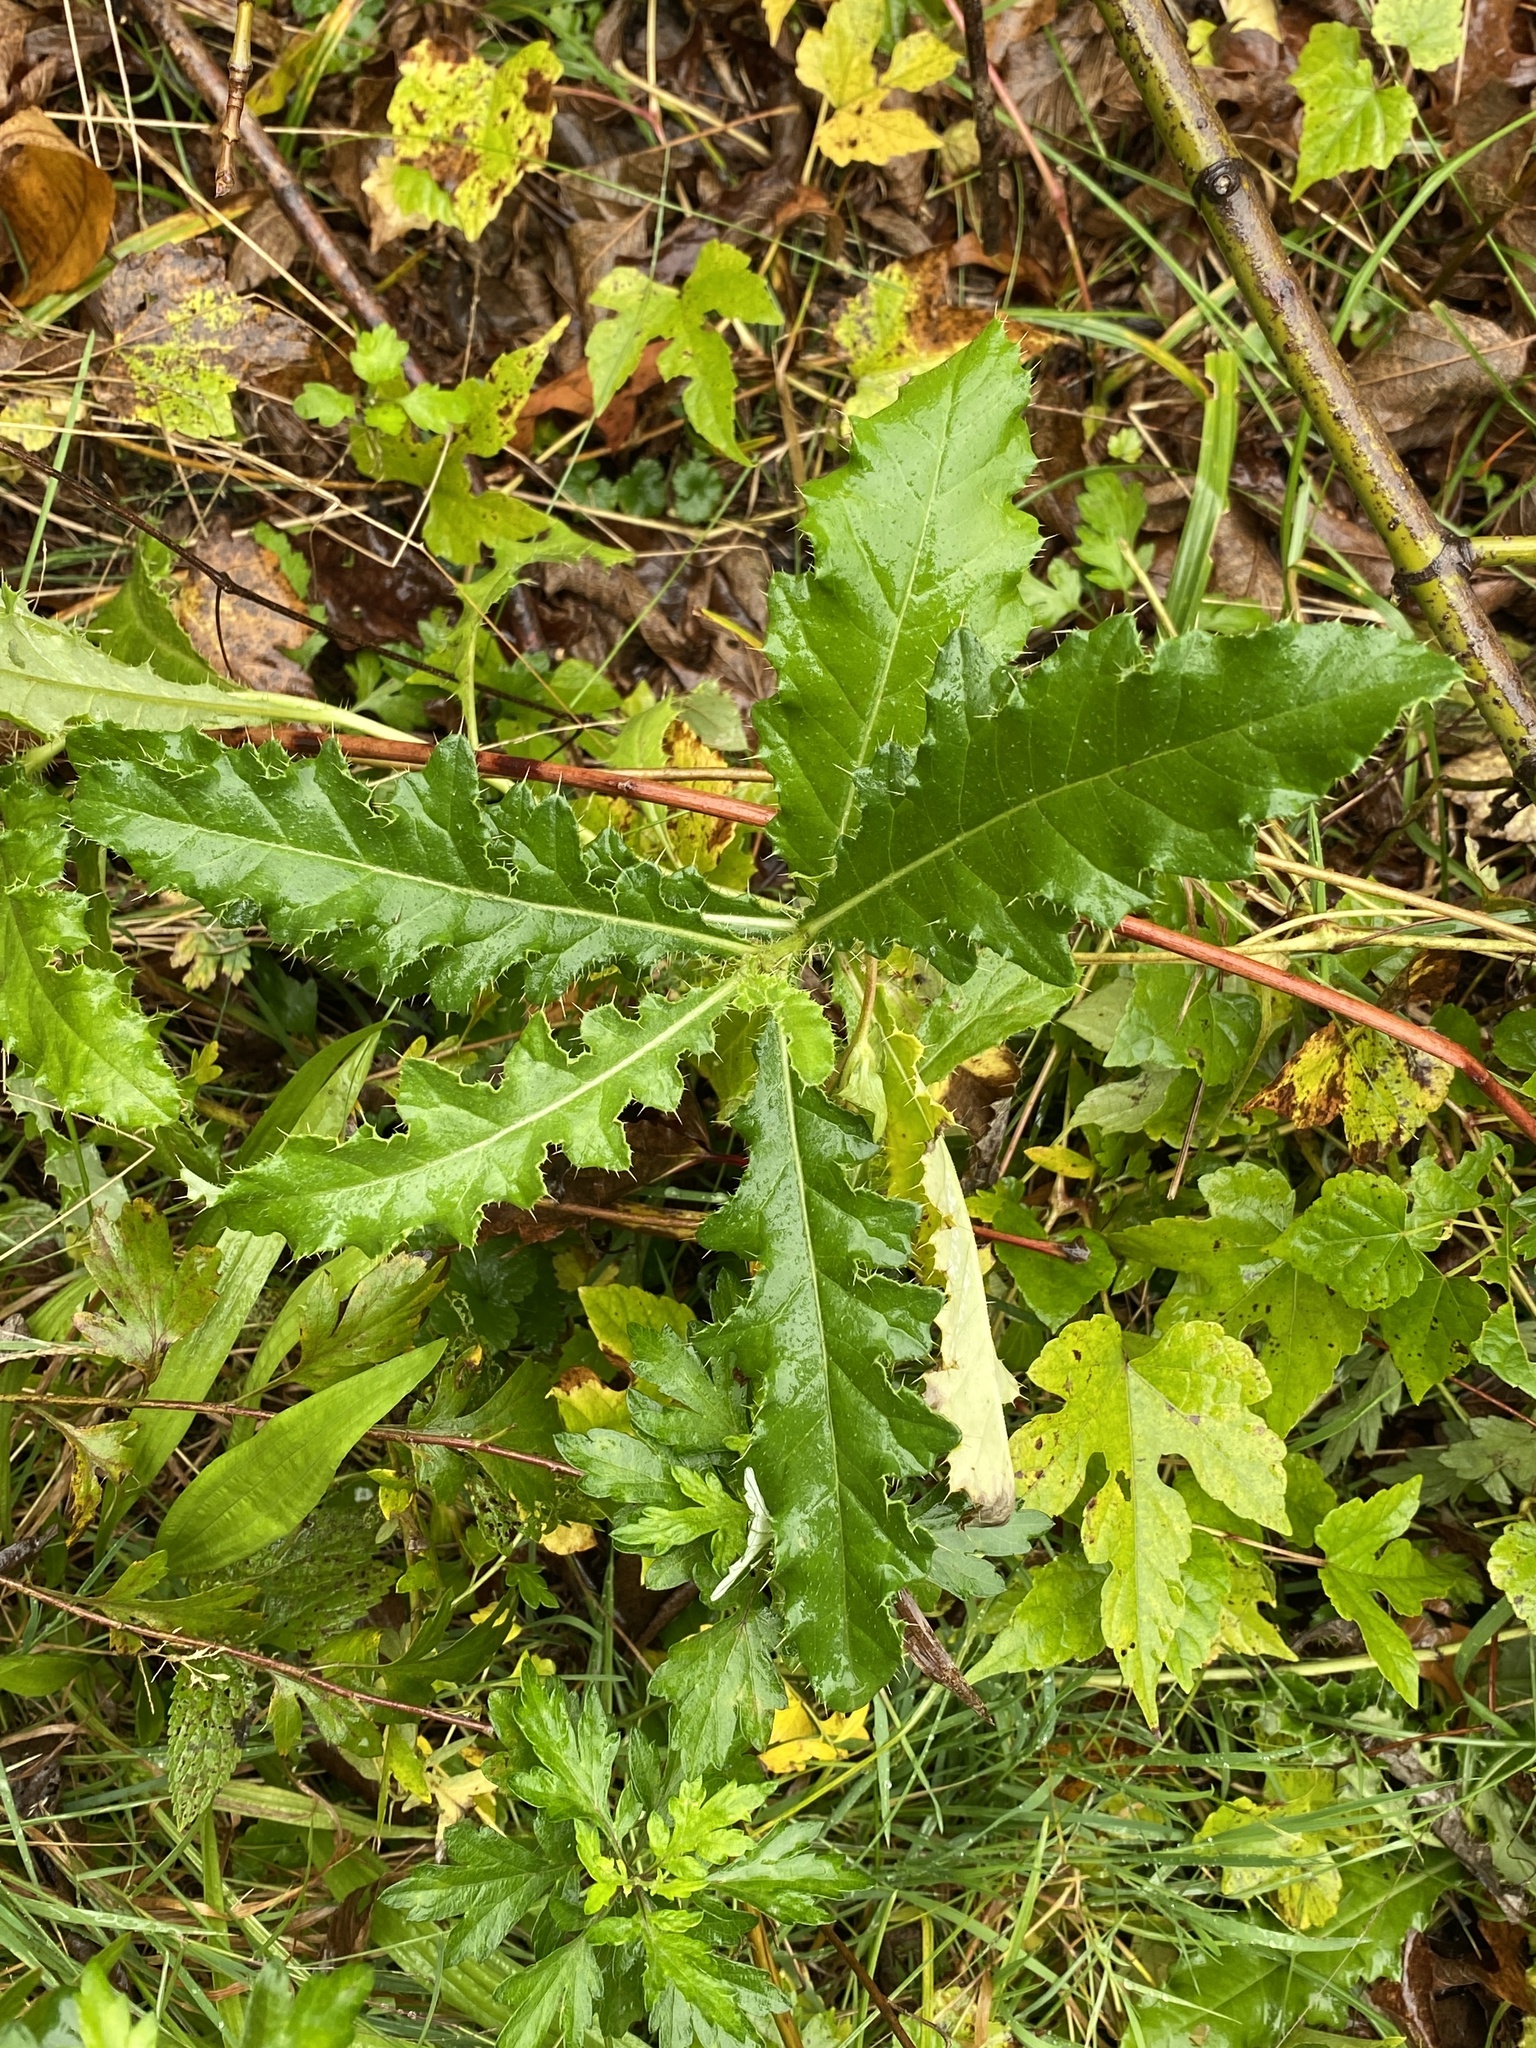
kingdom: Plantae
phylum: Tracheophyta
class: Magnoliopsida
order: Asterales
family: Asteraceae
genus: Cirsium
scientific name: Cirsium arvense
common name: Creeping thistle
